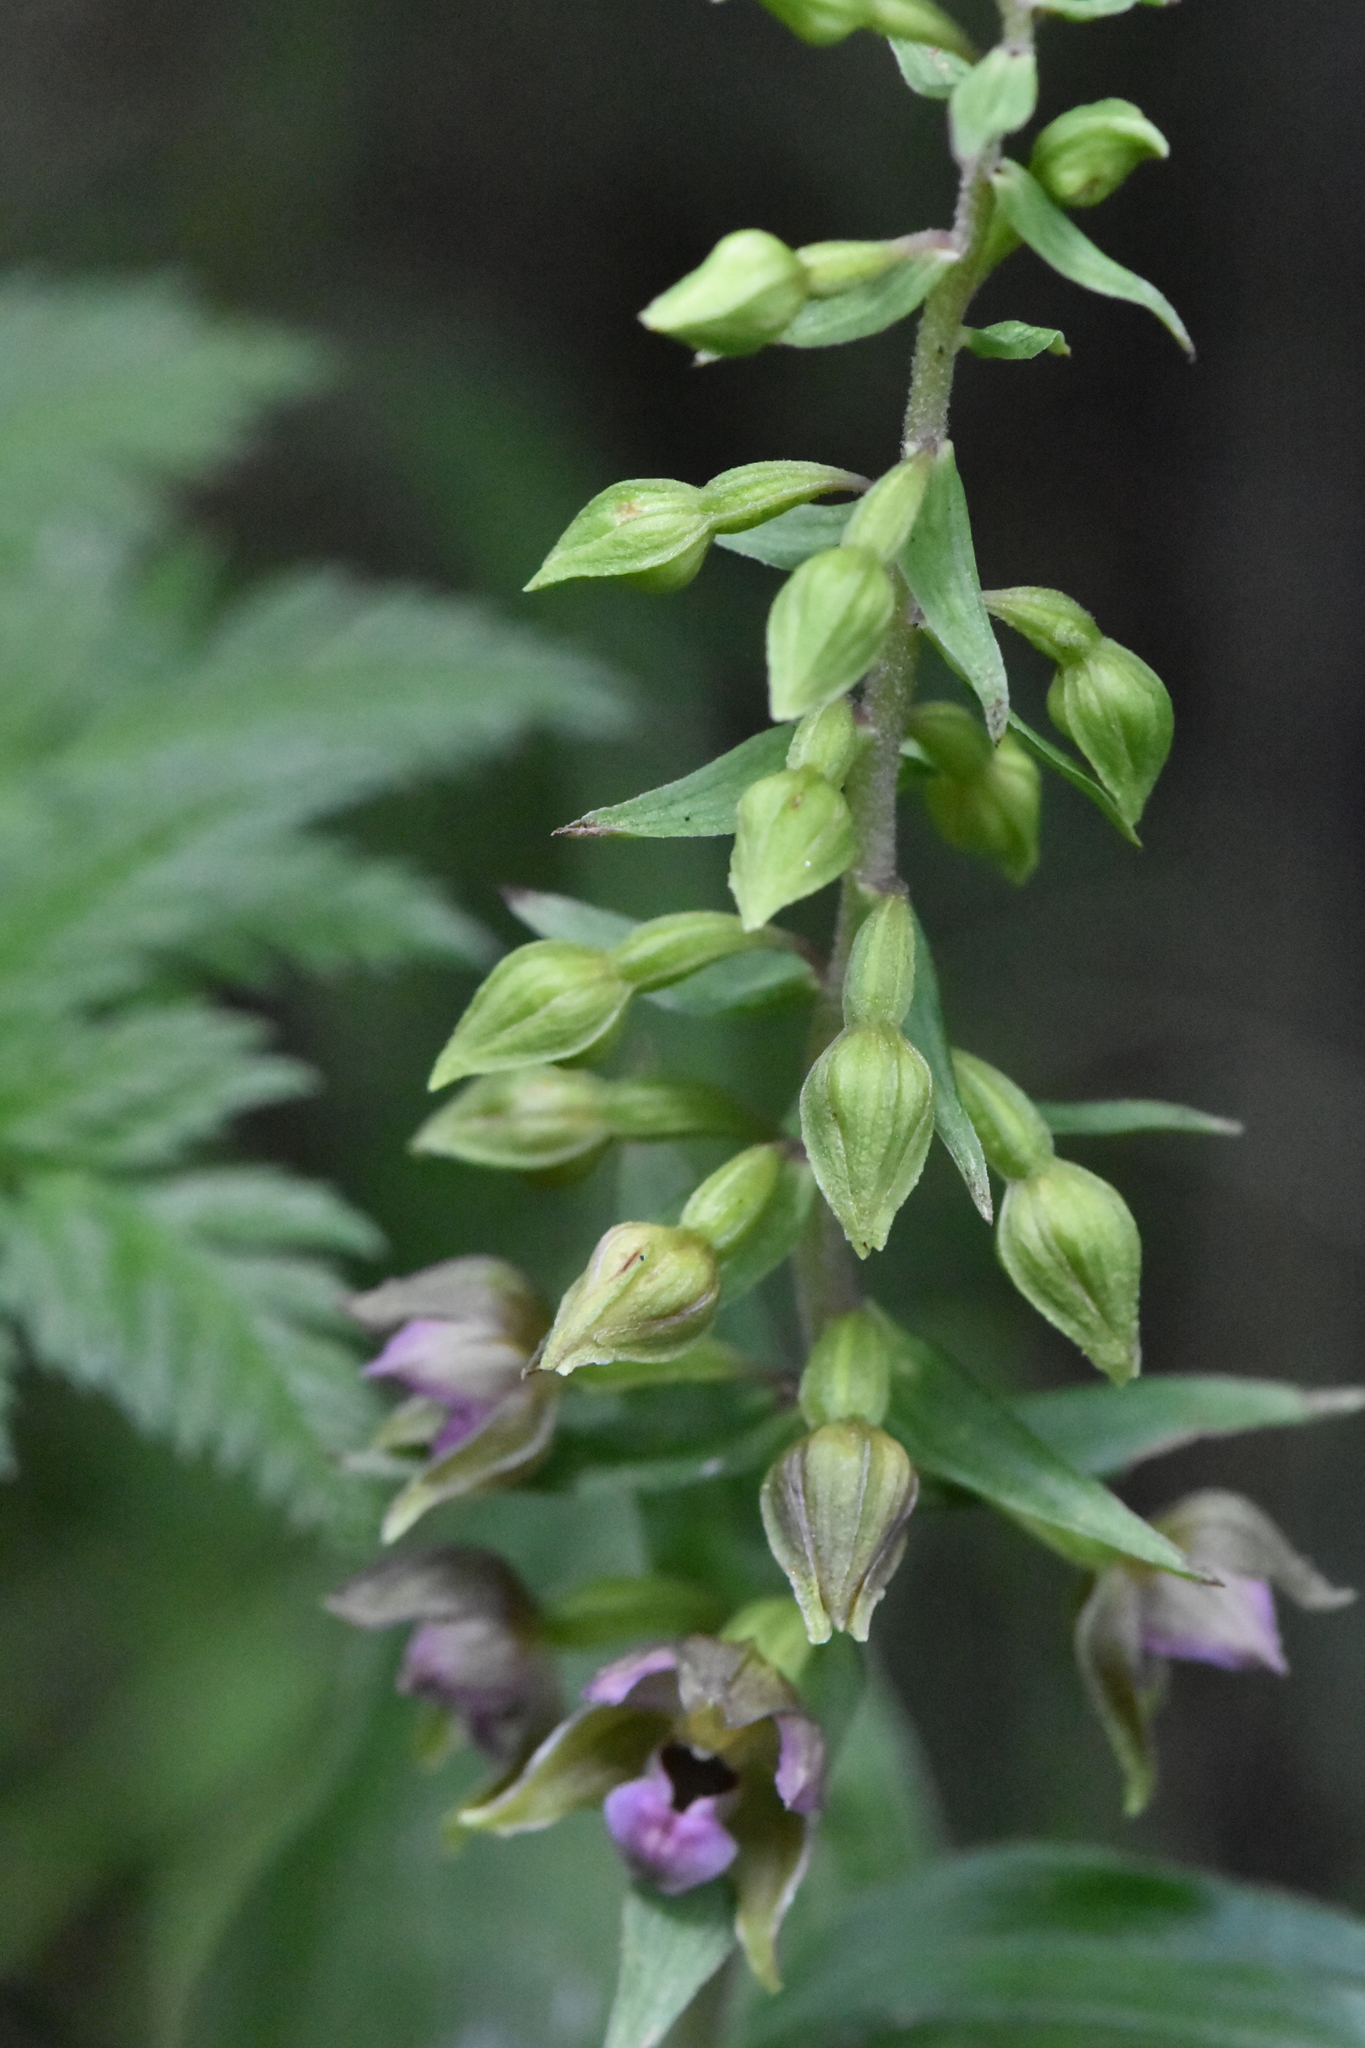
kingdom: Plantae
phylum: Tracheophyta
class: Liliopsida
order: Asparagales
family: Orchidaceae
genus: Epipactis
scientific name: Epipactis helleborine
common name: Broad-leaved helleborine
